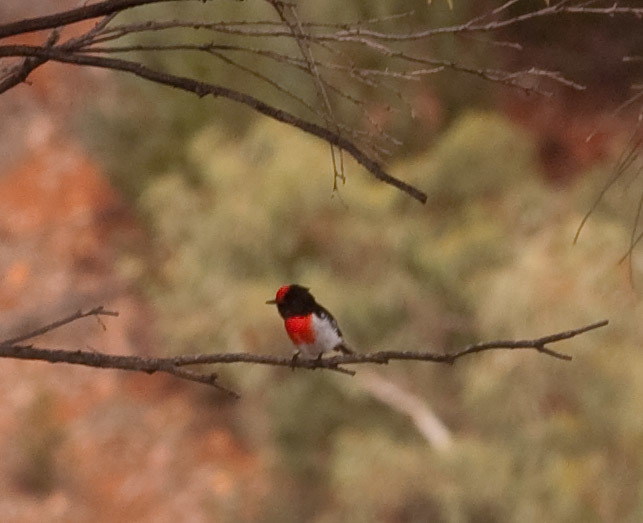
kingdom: Animalia
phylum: Chordata
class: Aves
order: Passeriformes
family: Petroicidae
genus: Petroica
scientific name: Petroica goodenovii
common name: Red-capped robin
